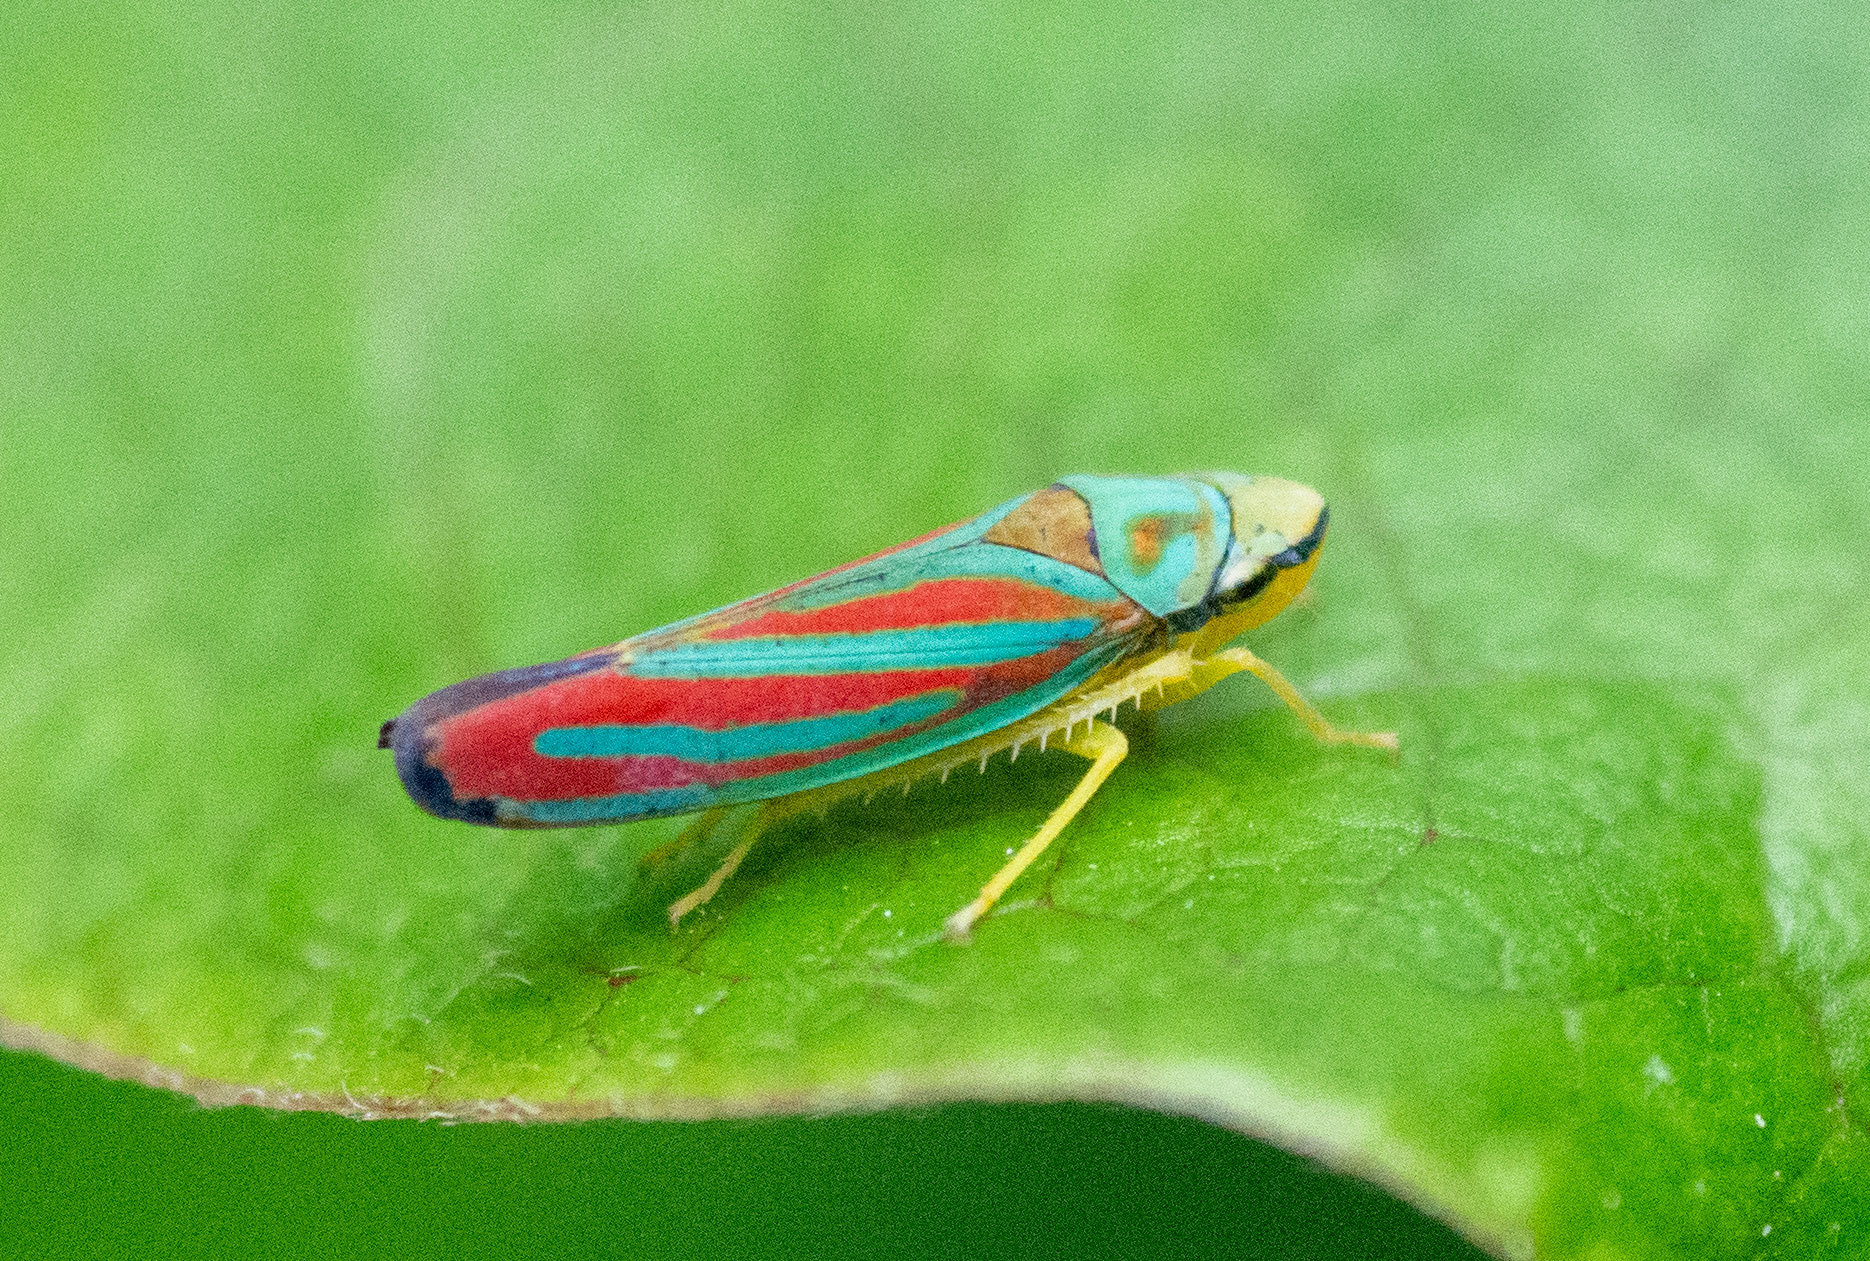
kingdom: Animalia
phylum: Arthropoda
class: Insecta
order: Hemiptera
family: Cicadellidae
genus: Graphocephala
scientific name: Graphocephala coccinea
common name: Candy-striped leafhopper
